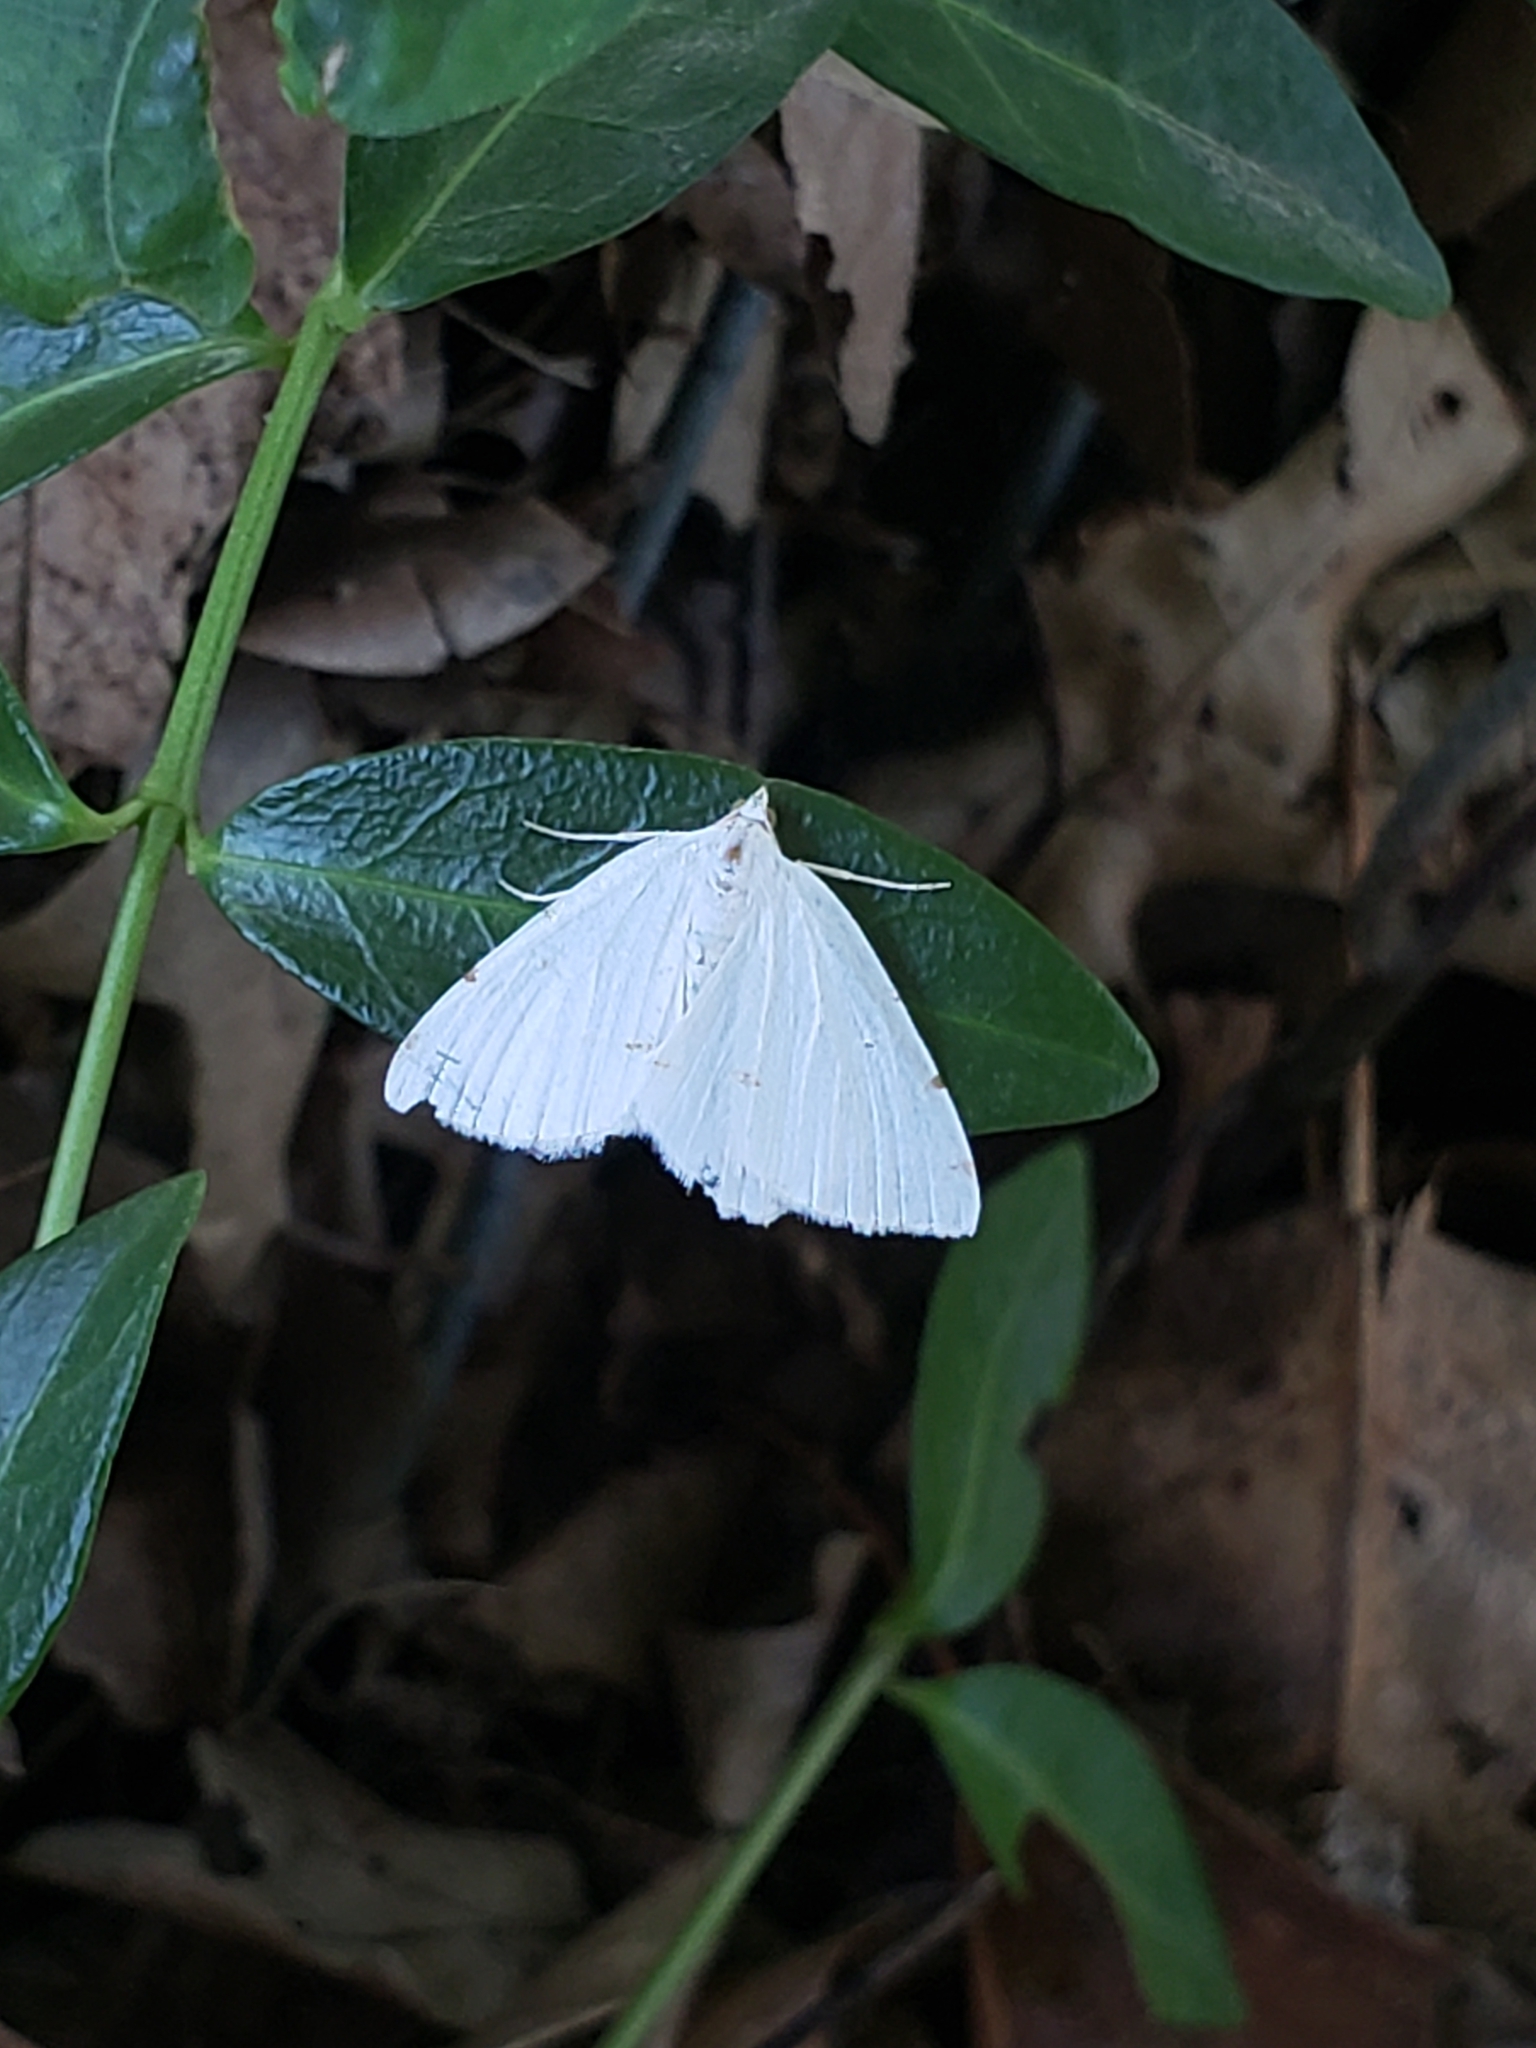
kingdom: Animalia
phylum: Arthropoda
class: Insecta
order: Lepidoptera
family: Geometridae
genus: Macaria
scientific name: Macaria pustularia
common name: Lesser maple spanworm moth
